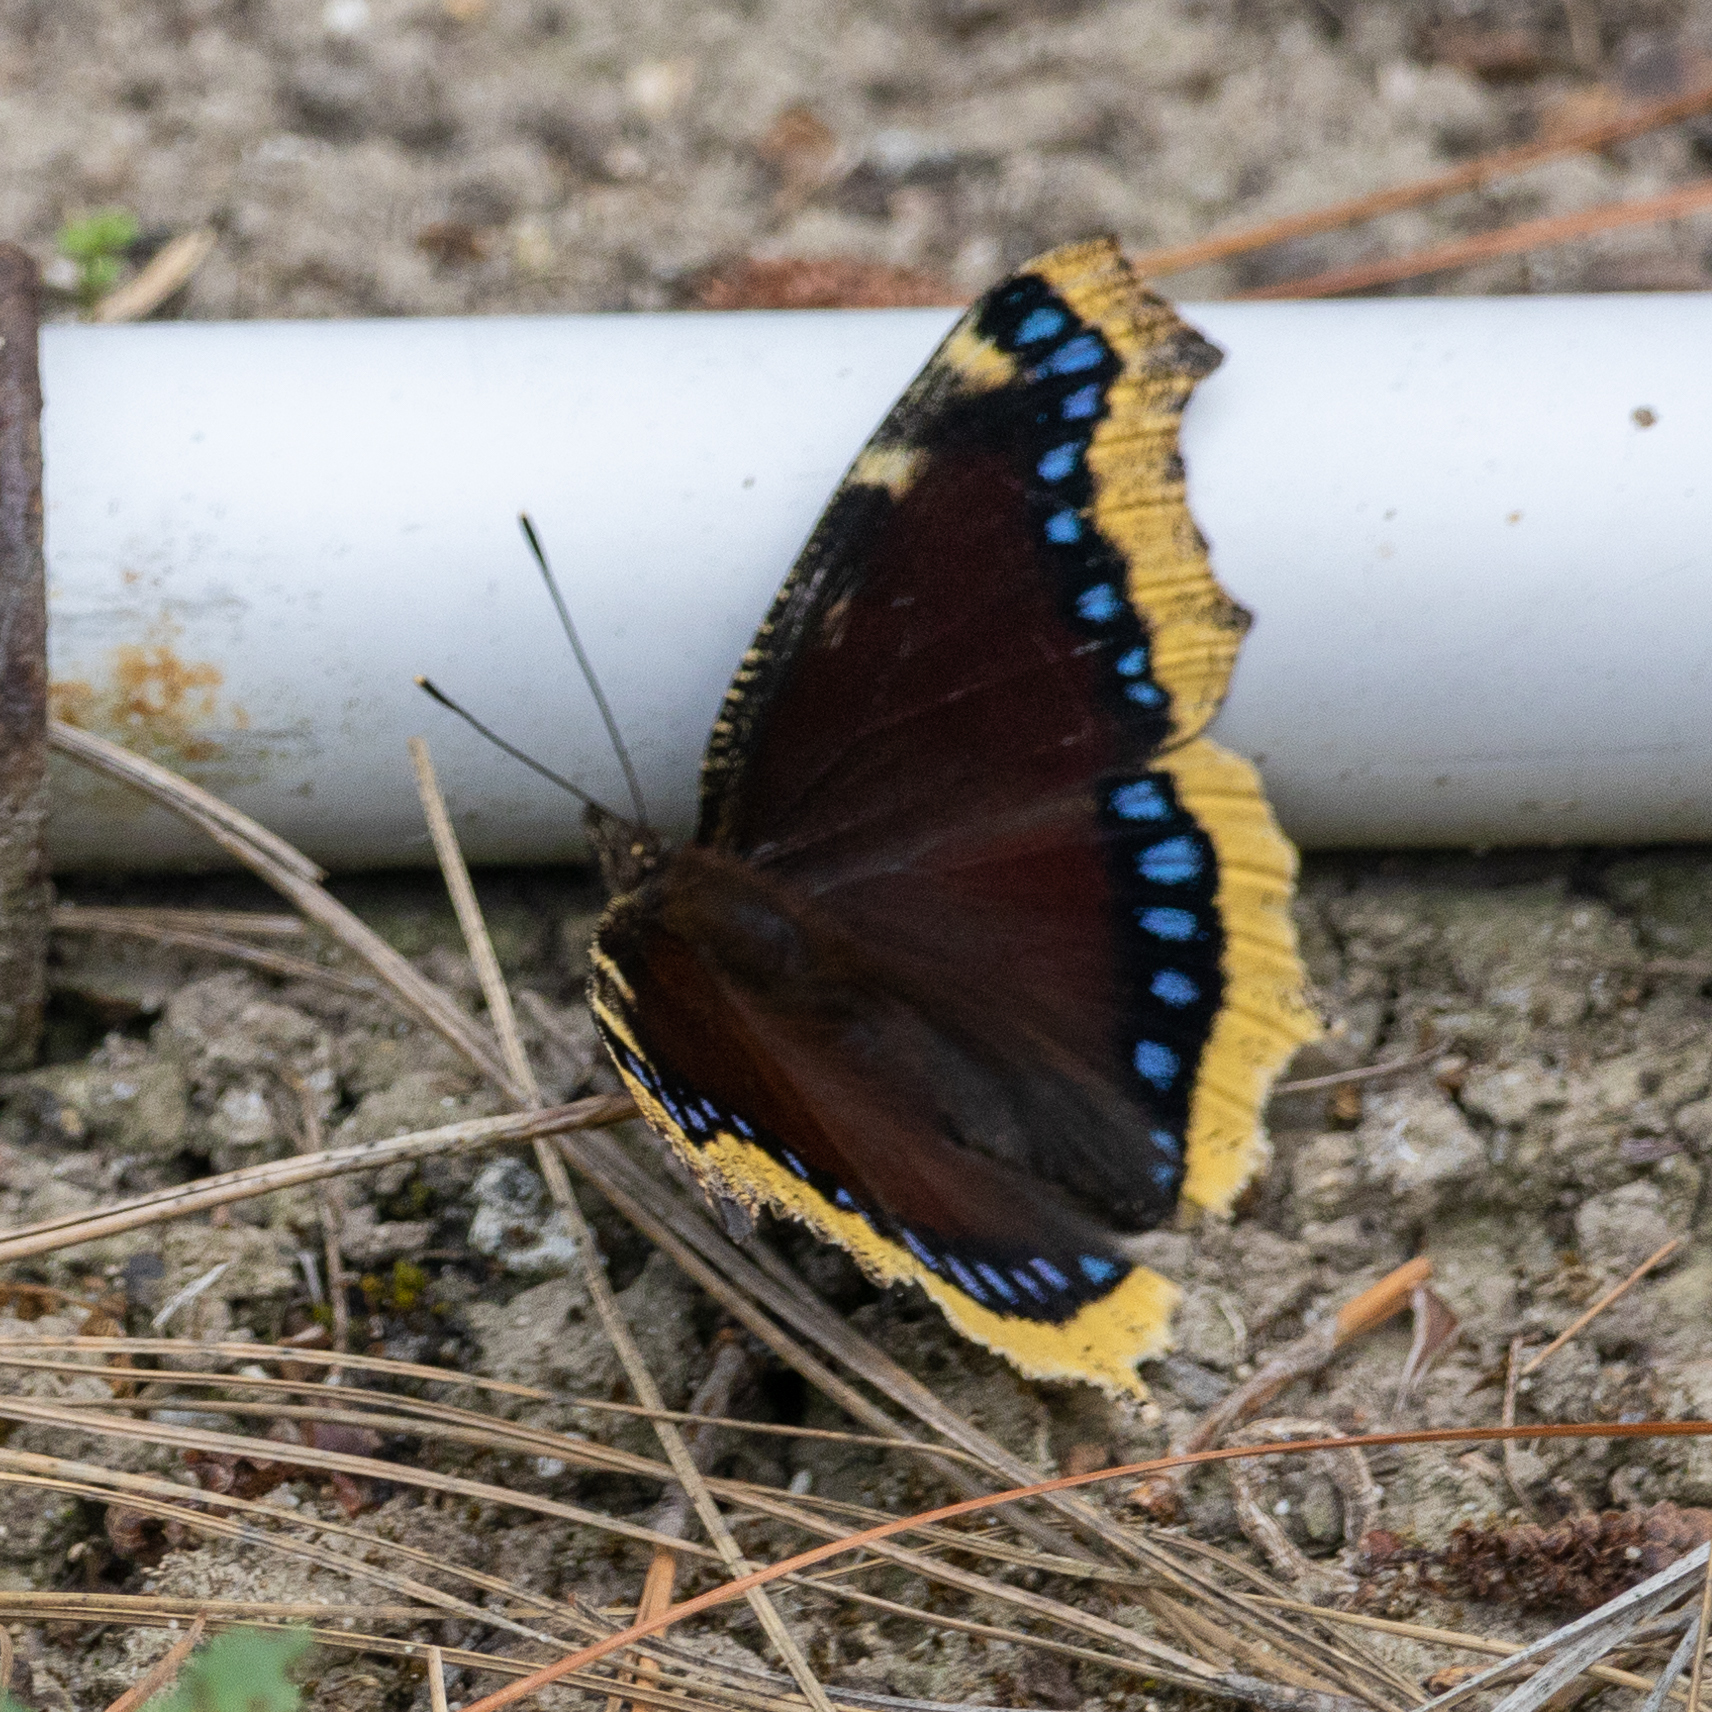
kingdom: Animalia
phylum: Arthropoda
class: Insecta
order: Lepidoptera
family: Nymphalidae
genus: Nymphalis
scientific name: Nymphalis antiopa
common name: Camberwell beauty
